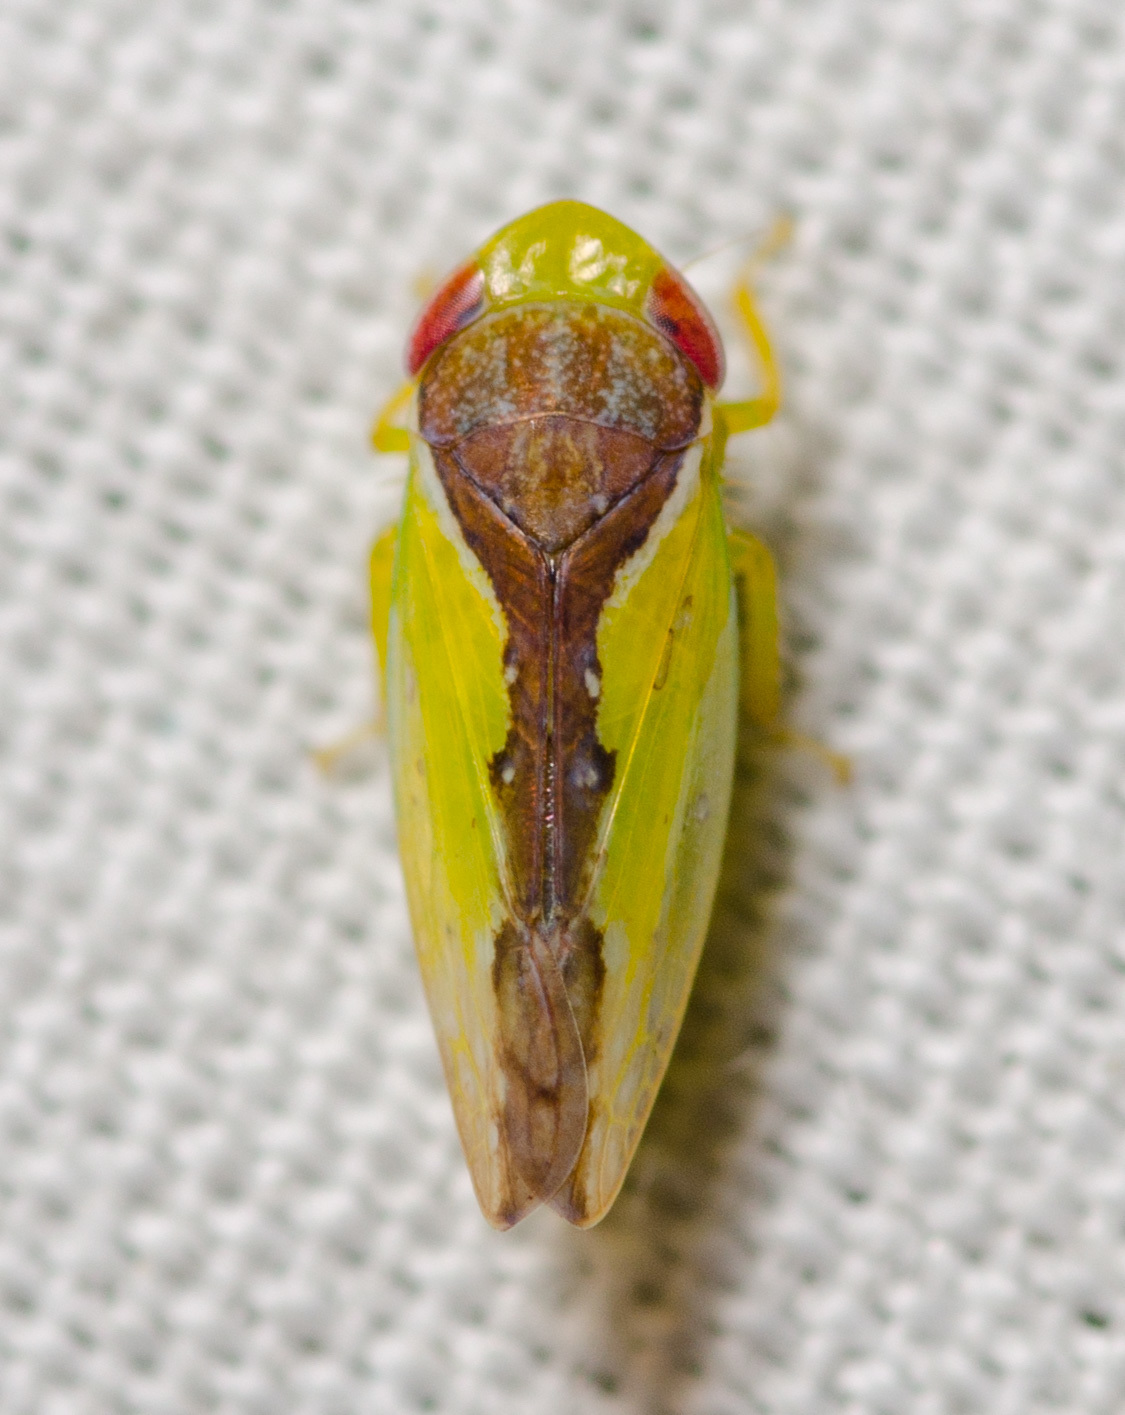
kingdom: Animalia
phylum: Arthropoda
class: Insecta
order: Hemiptera
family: Cicadellidae
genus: Omansobara ing
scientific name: Omansobara ing Omansobara palliolata
